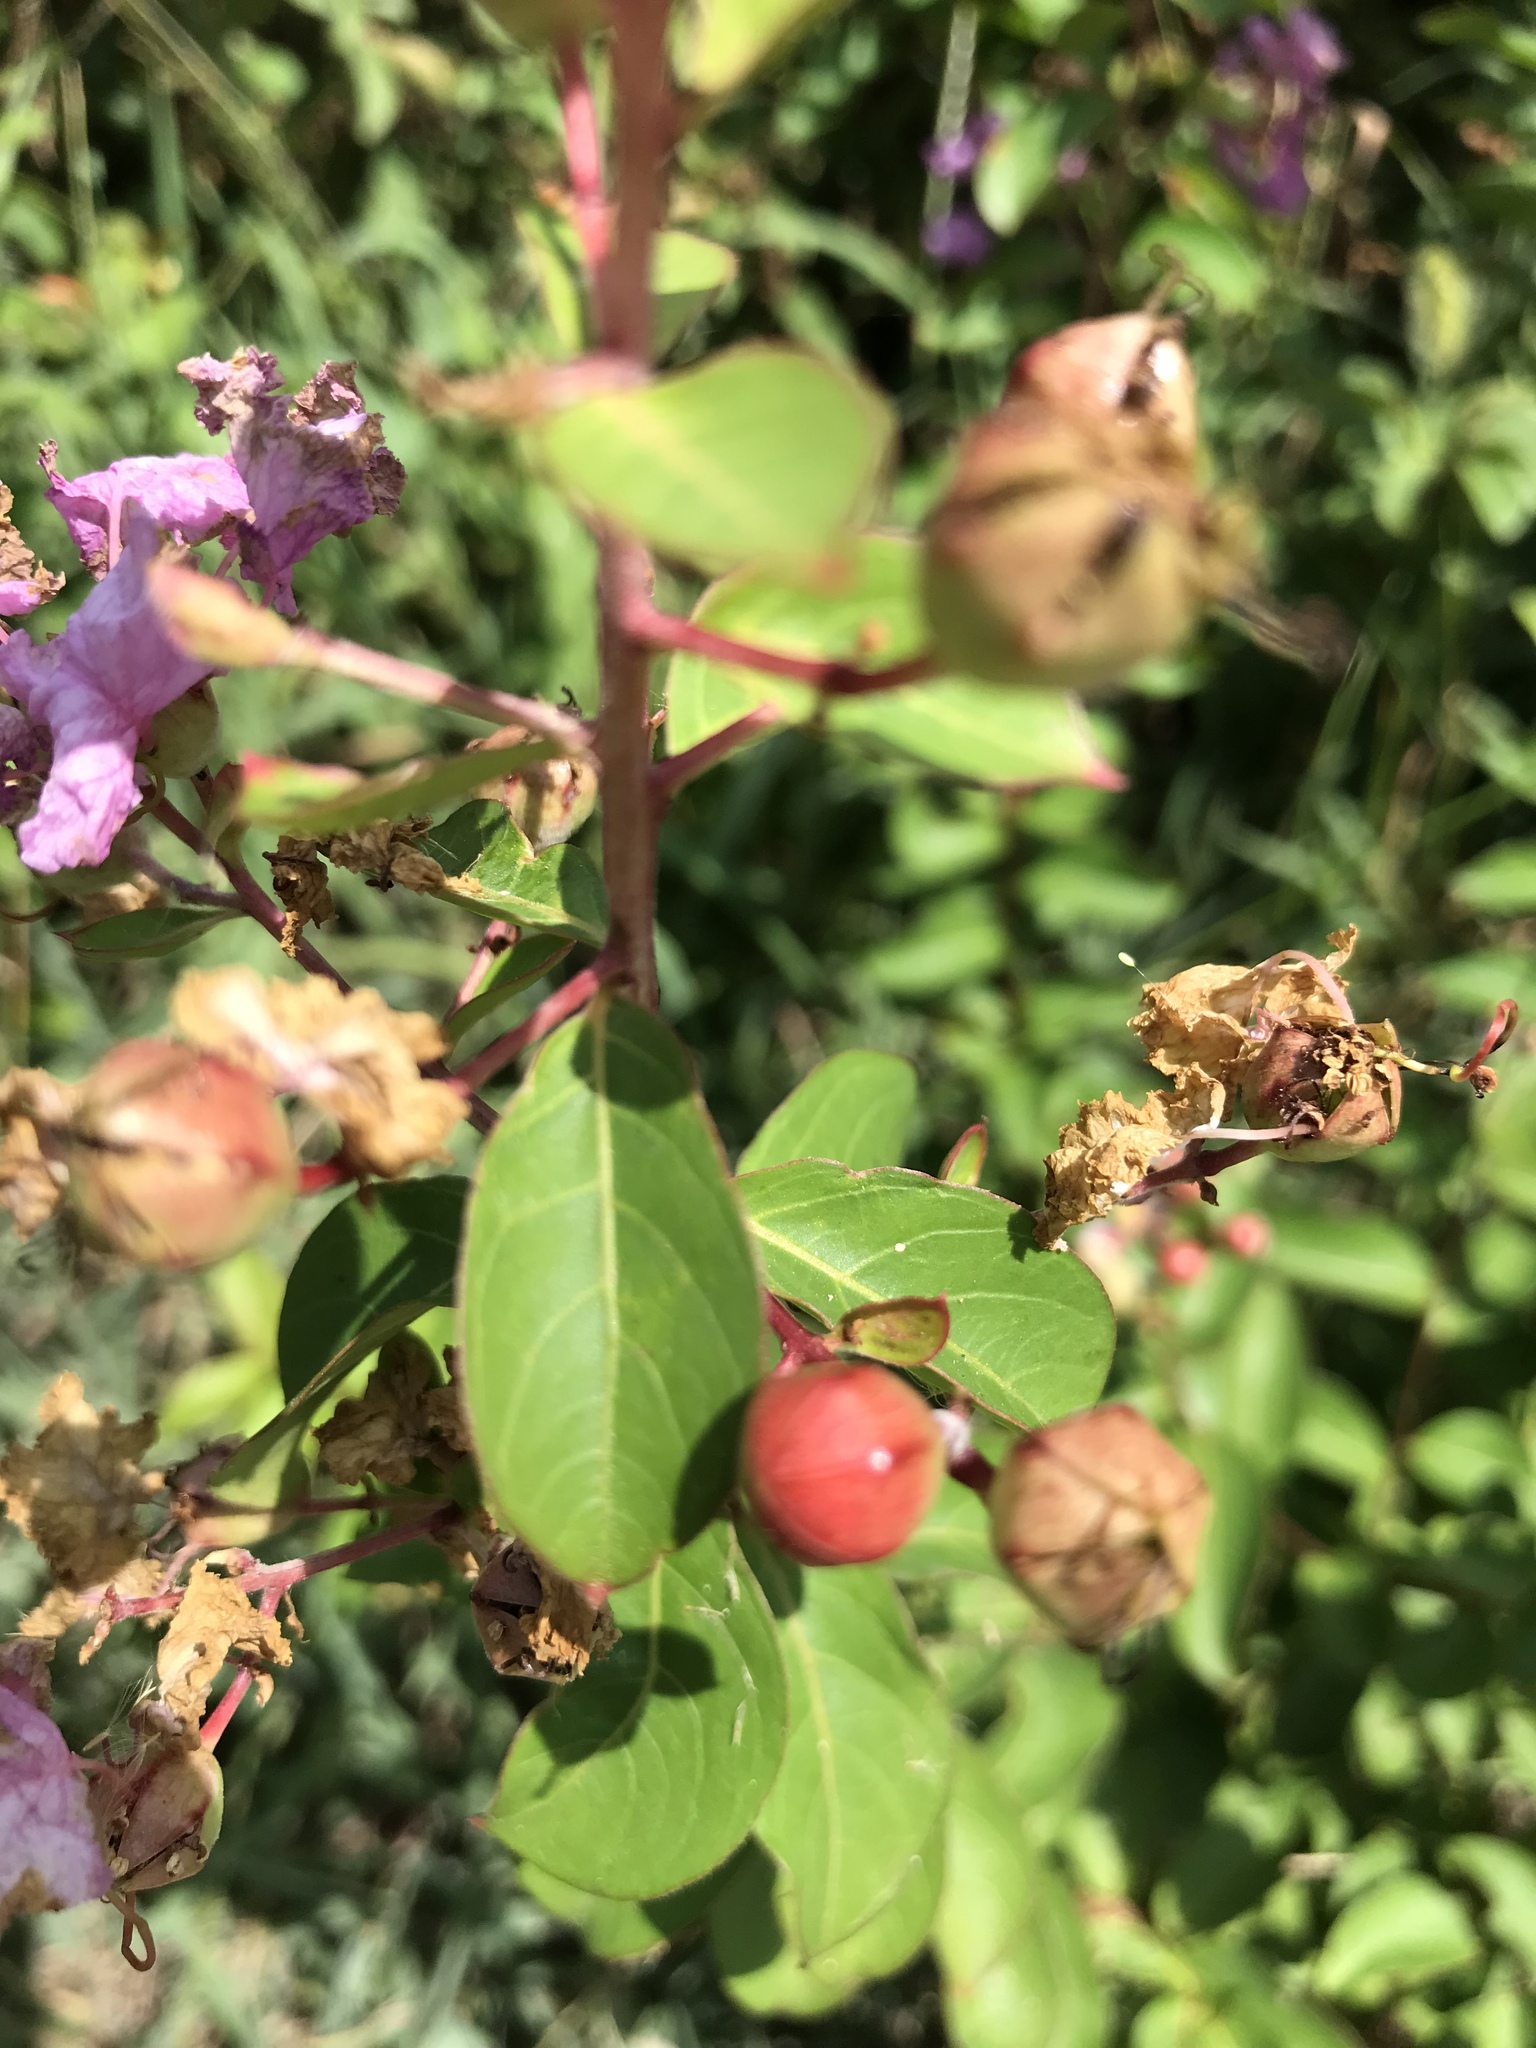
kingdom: Plantae
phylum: Tracheophyta
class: Magnoliopsida
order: Myrtales
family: Lythraceae
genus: Lagerstroemia
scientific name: Lagerstroemia indica
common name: Crape-myrtle
